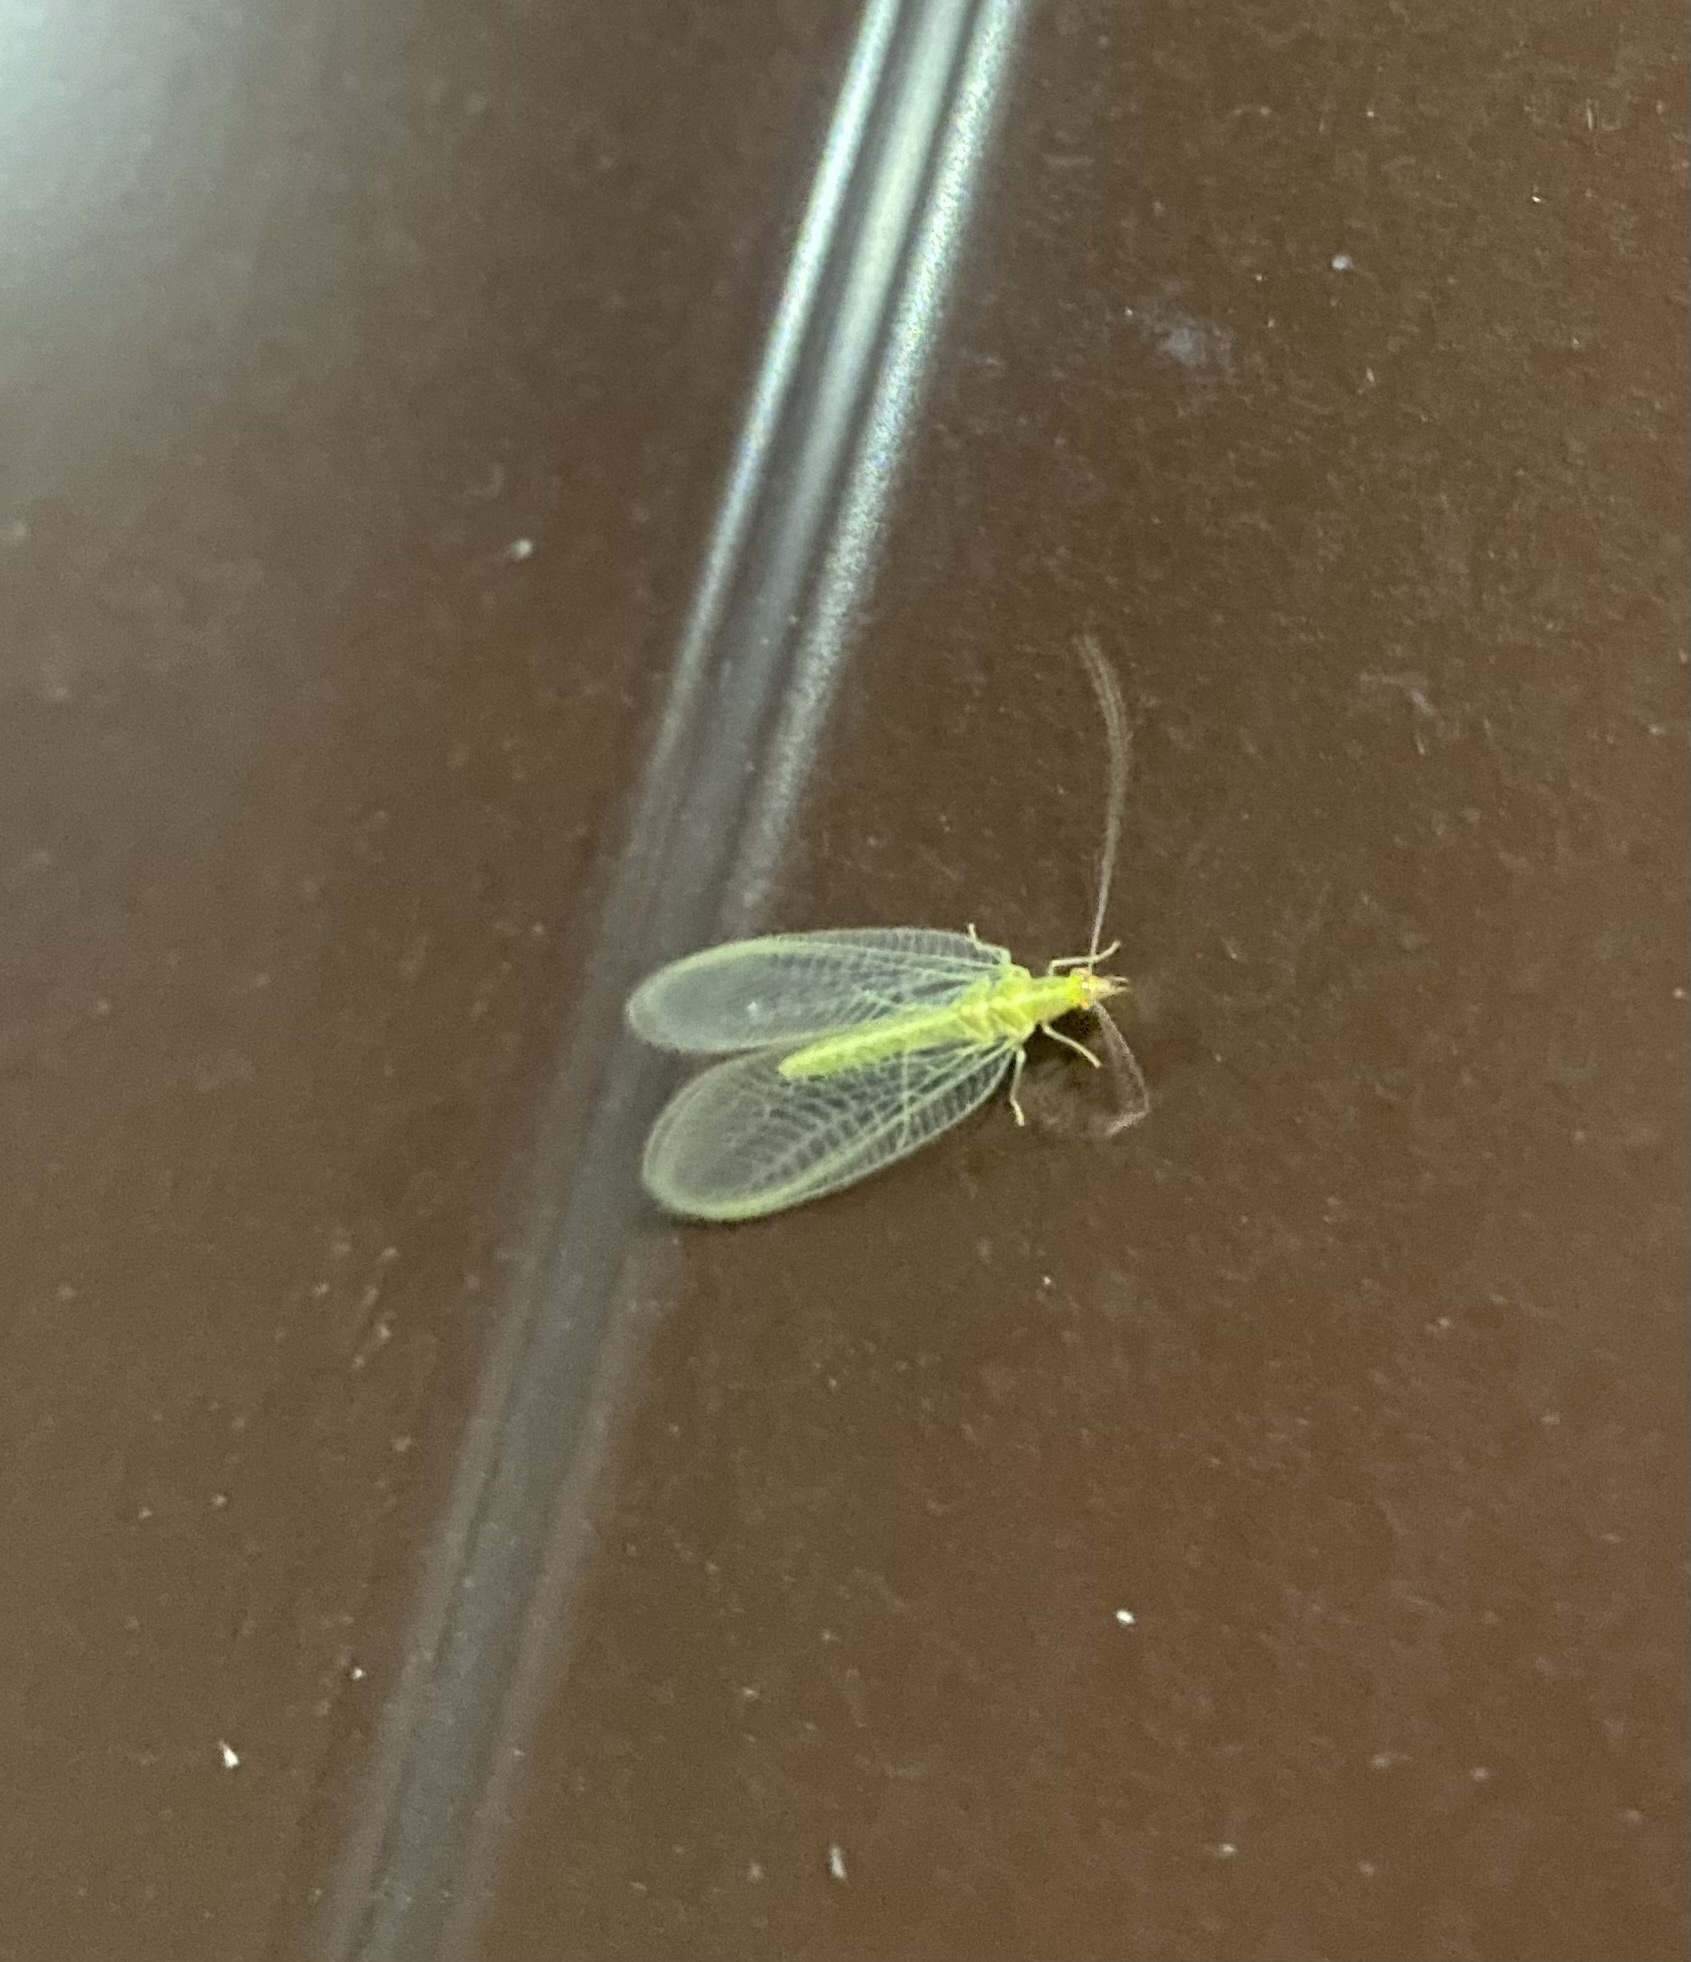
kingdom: Animalia
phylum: Arthropoda
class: Insecta
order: Neuroptera
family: Chrysopidae
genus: Chrysoperla
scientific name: Chrysoperla
